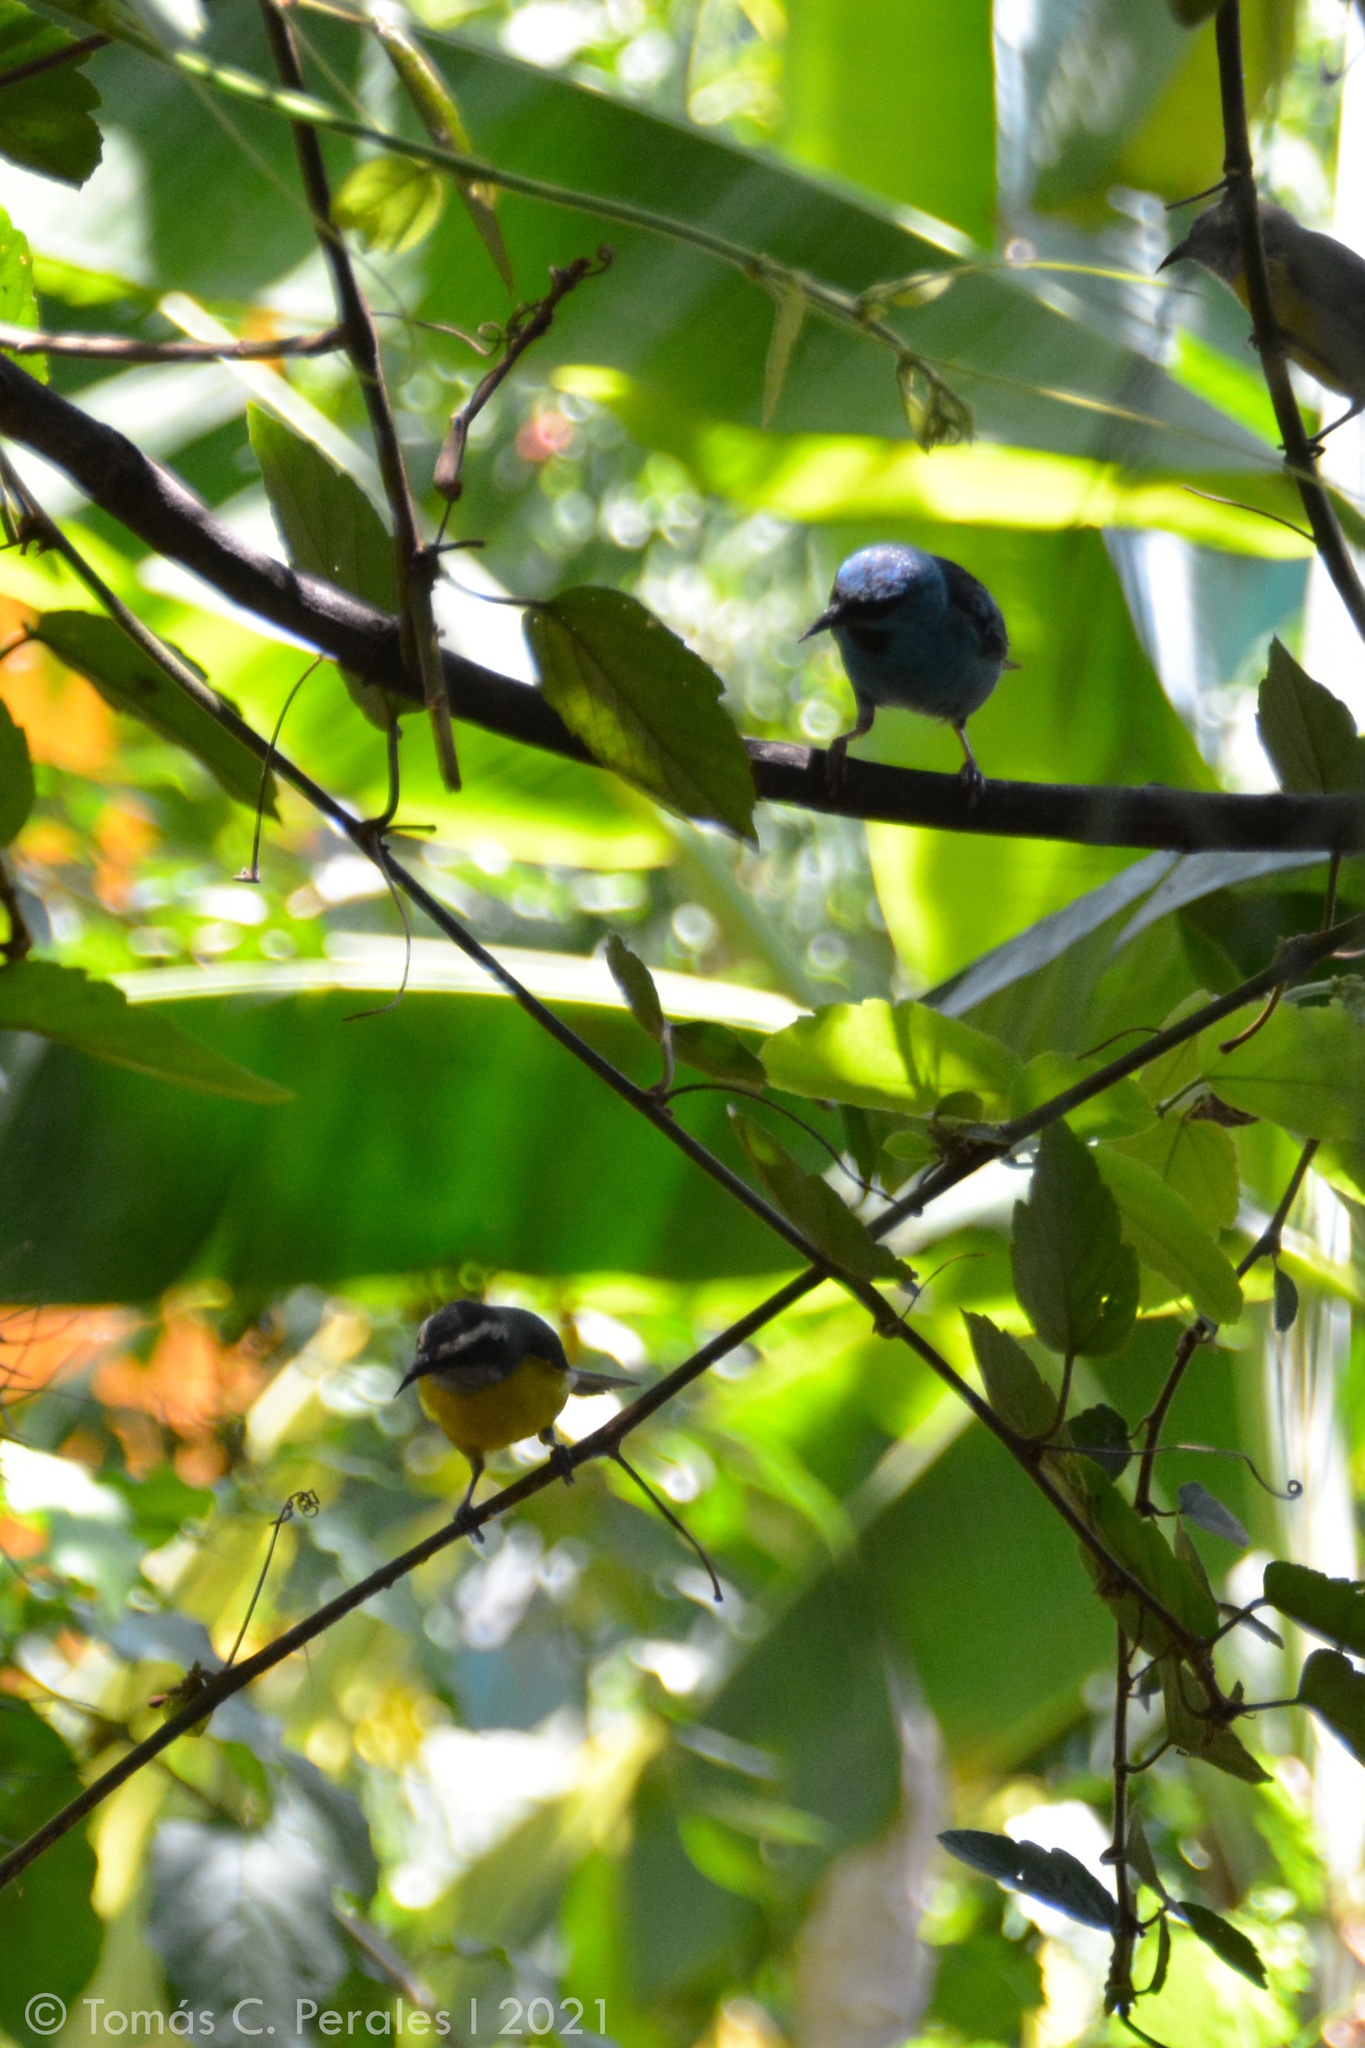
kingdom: Animalia
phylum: Chordata
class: Aves
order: Passeriformes
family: Thraupidae
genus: Dacnis
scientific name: Dacnis cayana
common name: Blue dacnis
